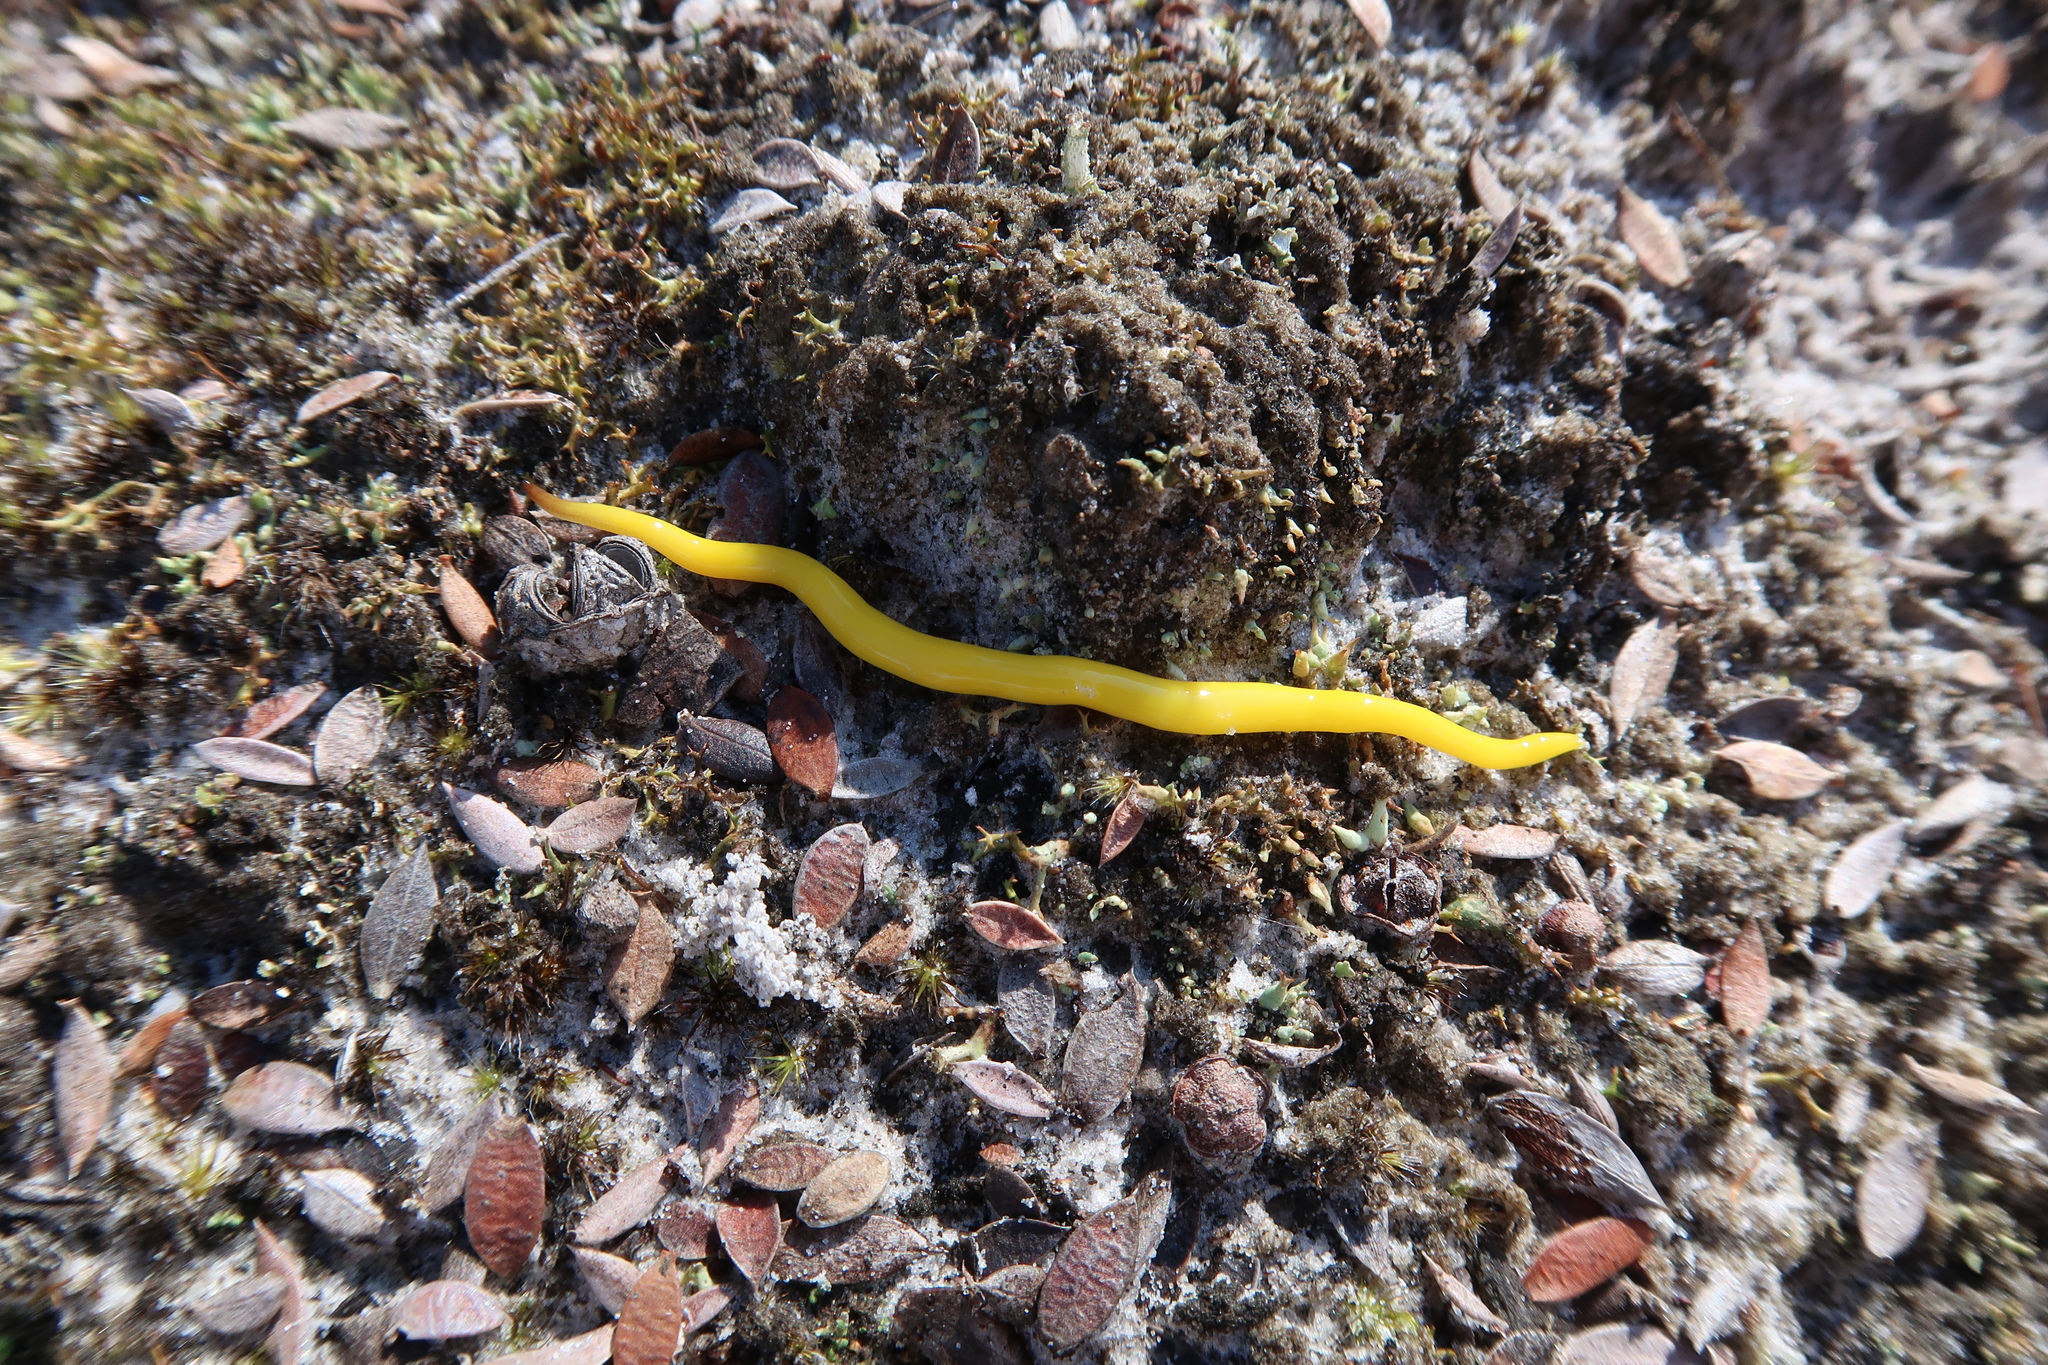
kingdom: Animalia
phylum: Platyhelminthes
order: Tricladida
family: Geoplanidae
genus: Fletchamia
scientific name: Fletchamia sugdeni
